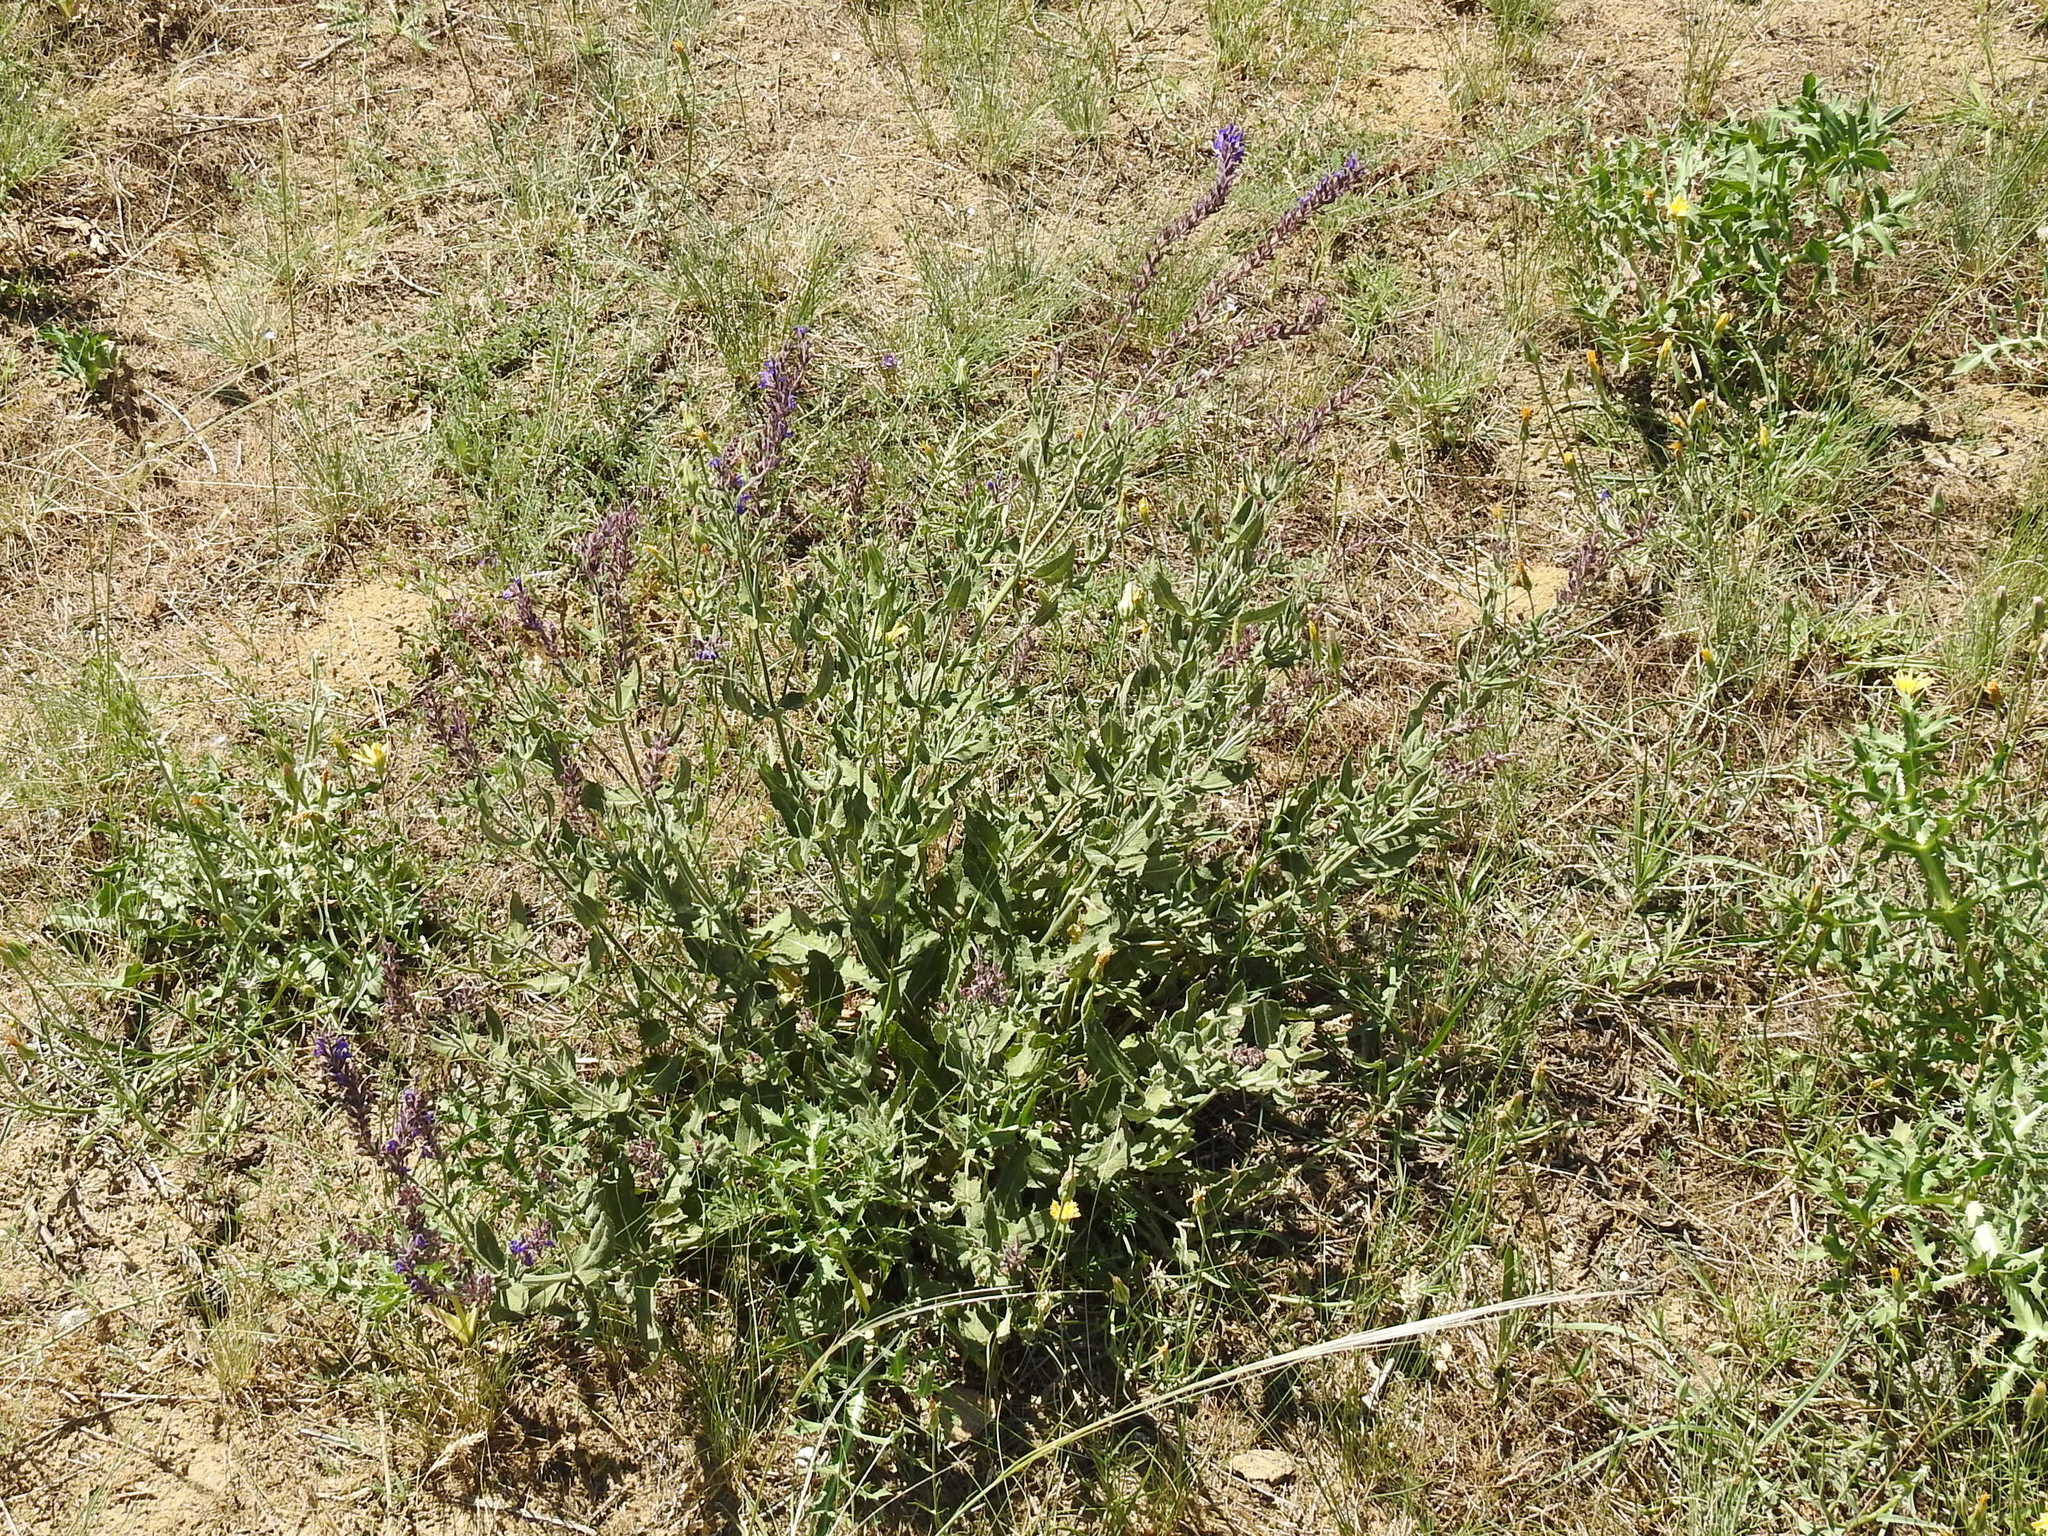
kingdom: Plantae
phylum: Tracheophyta
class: Magnoliopsida
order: Lamiales
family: Lamiaceae
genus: Salvia
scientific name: Salvia nemorosa
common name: Balkan clary
